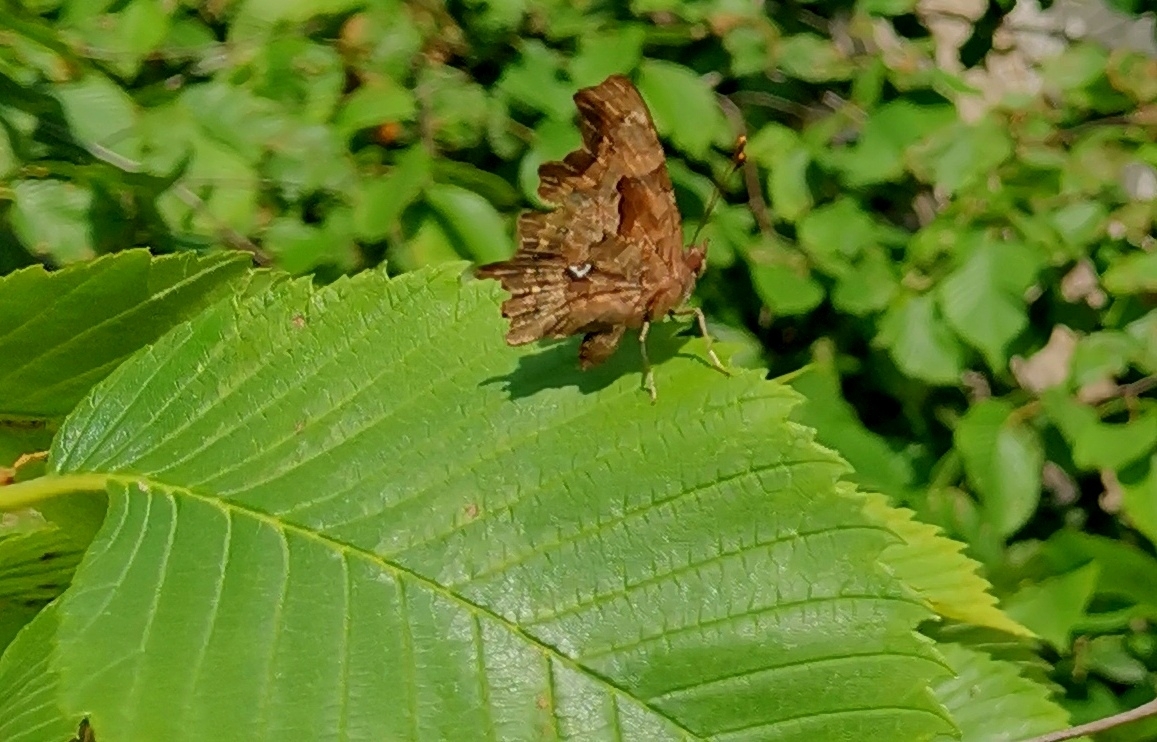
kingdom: Animalia
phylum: Arthropoda
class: Insecta
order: Lepidoptera
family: Nymphalidae
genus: Polygonia
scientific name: Polygonia c-album
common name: Comma
